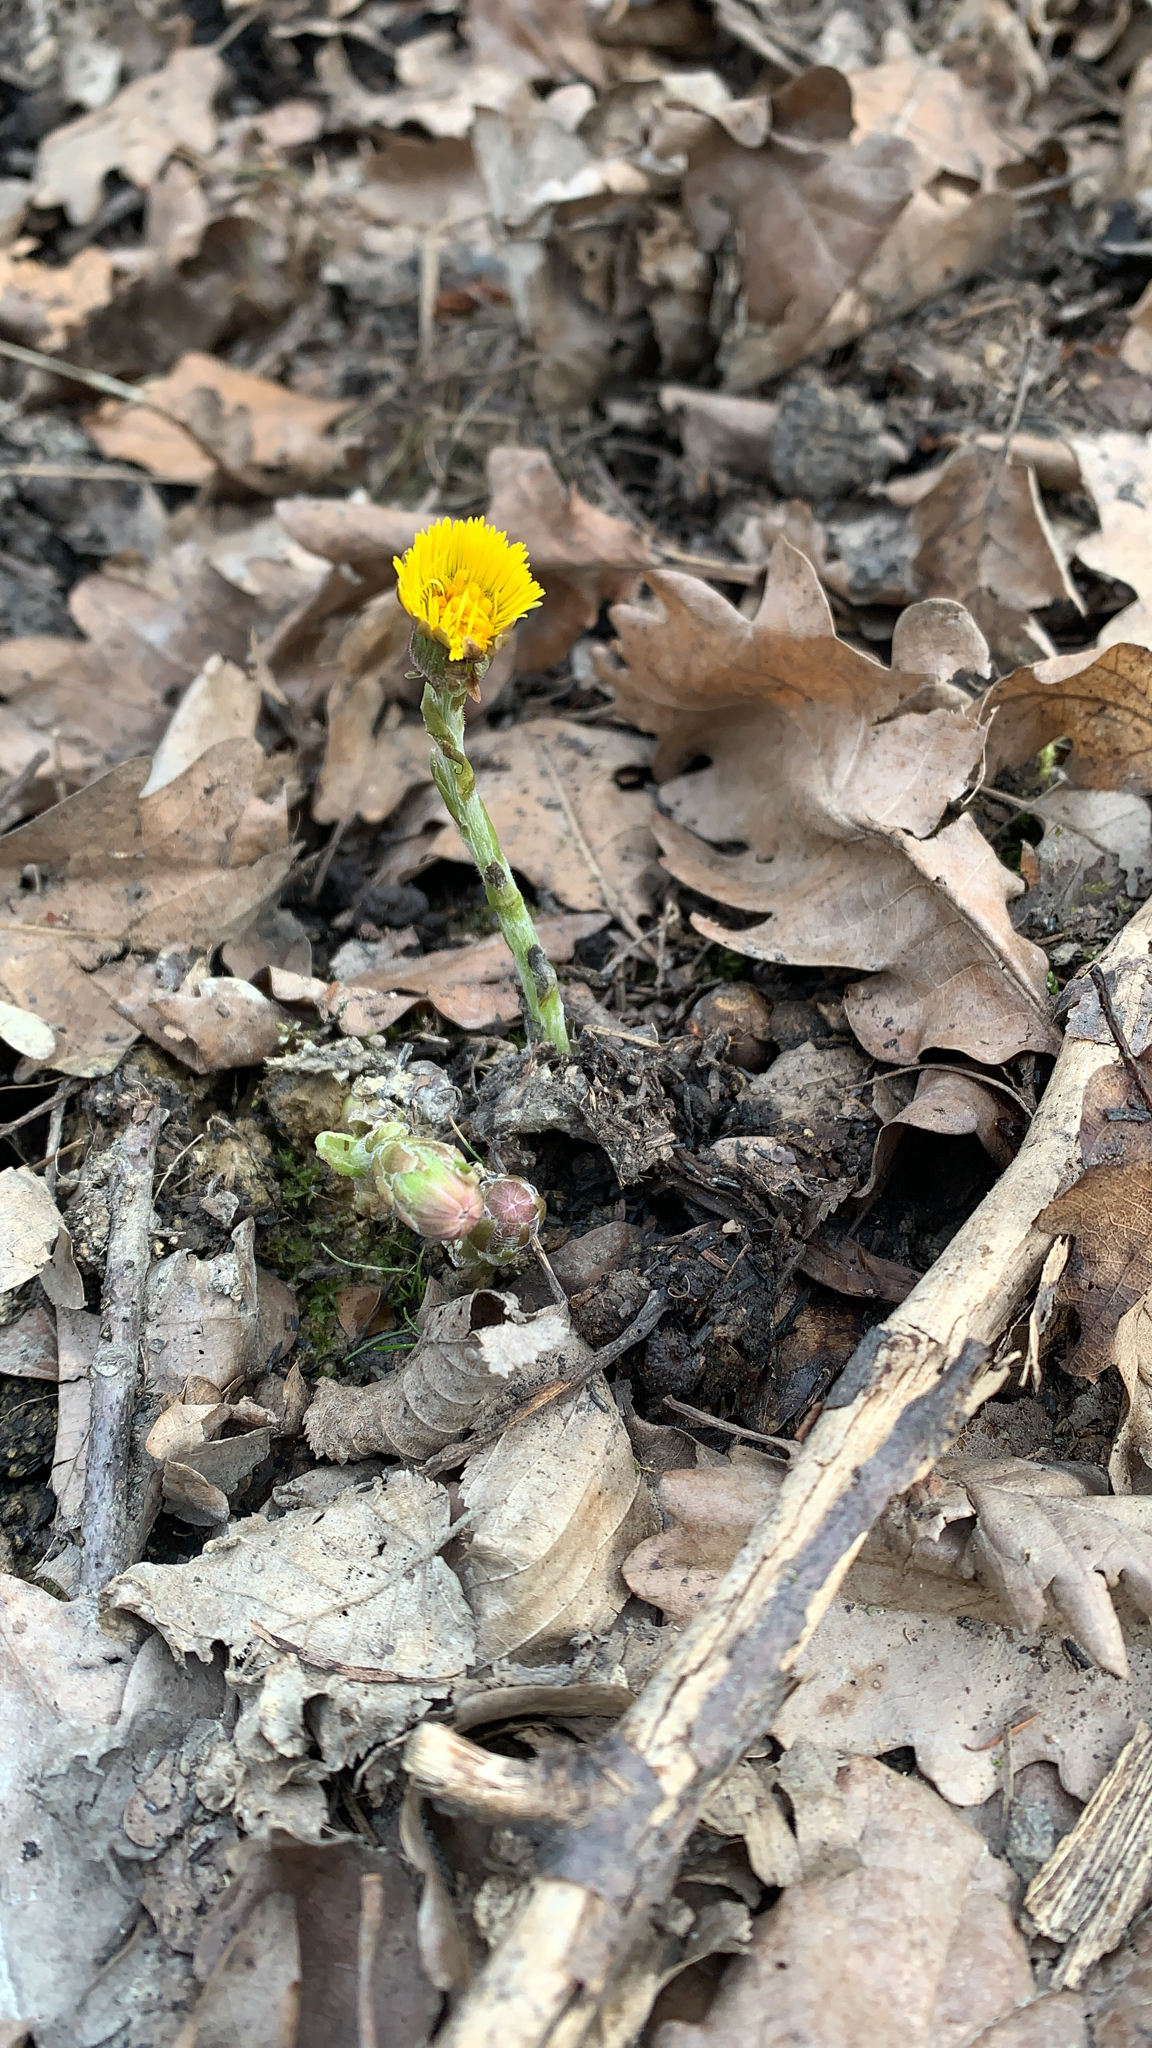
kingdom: Plantae
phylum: Tracheophyta
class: Magnoliopsida
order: Asterales
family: Asteraceae
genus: Tussilago
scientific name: Tussilago farfara
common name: Coltsfoot
